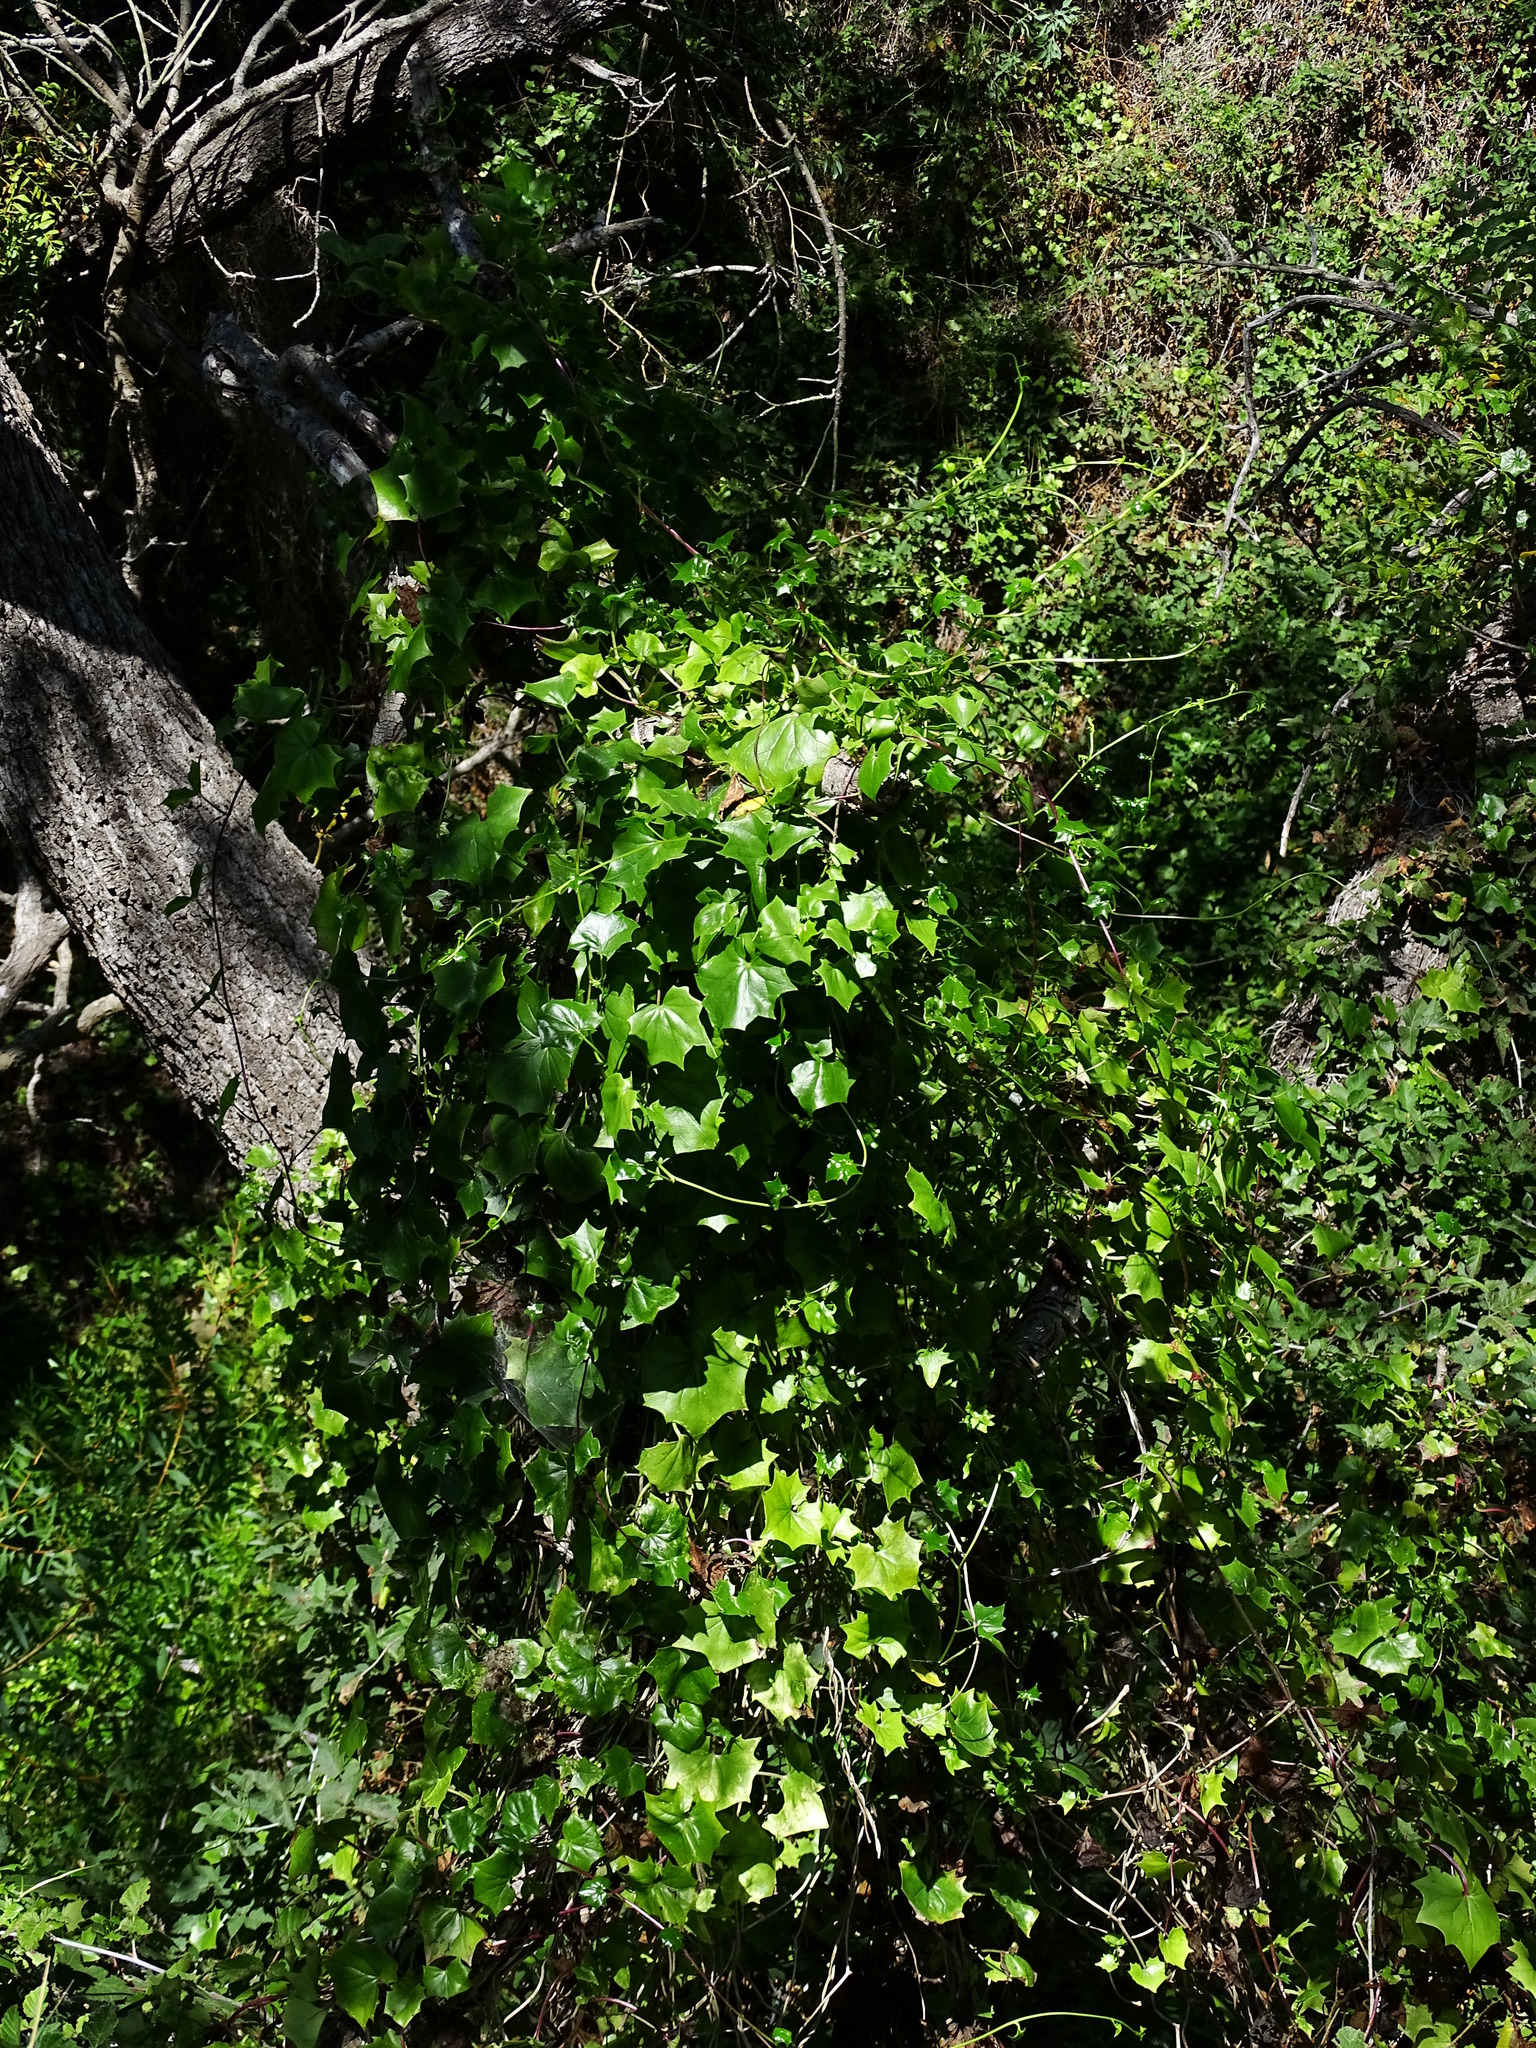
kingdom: Plantae
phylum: Tracheophyta
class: Magnoliopsida
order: Asterales
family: Asteraceae
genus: Delairea
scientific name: Delairea odorata
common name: Cape-ivy
